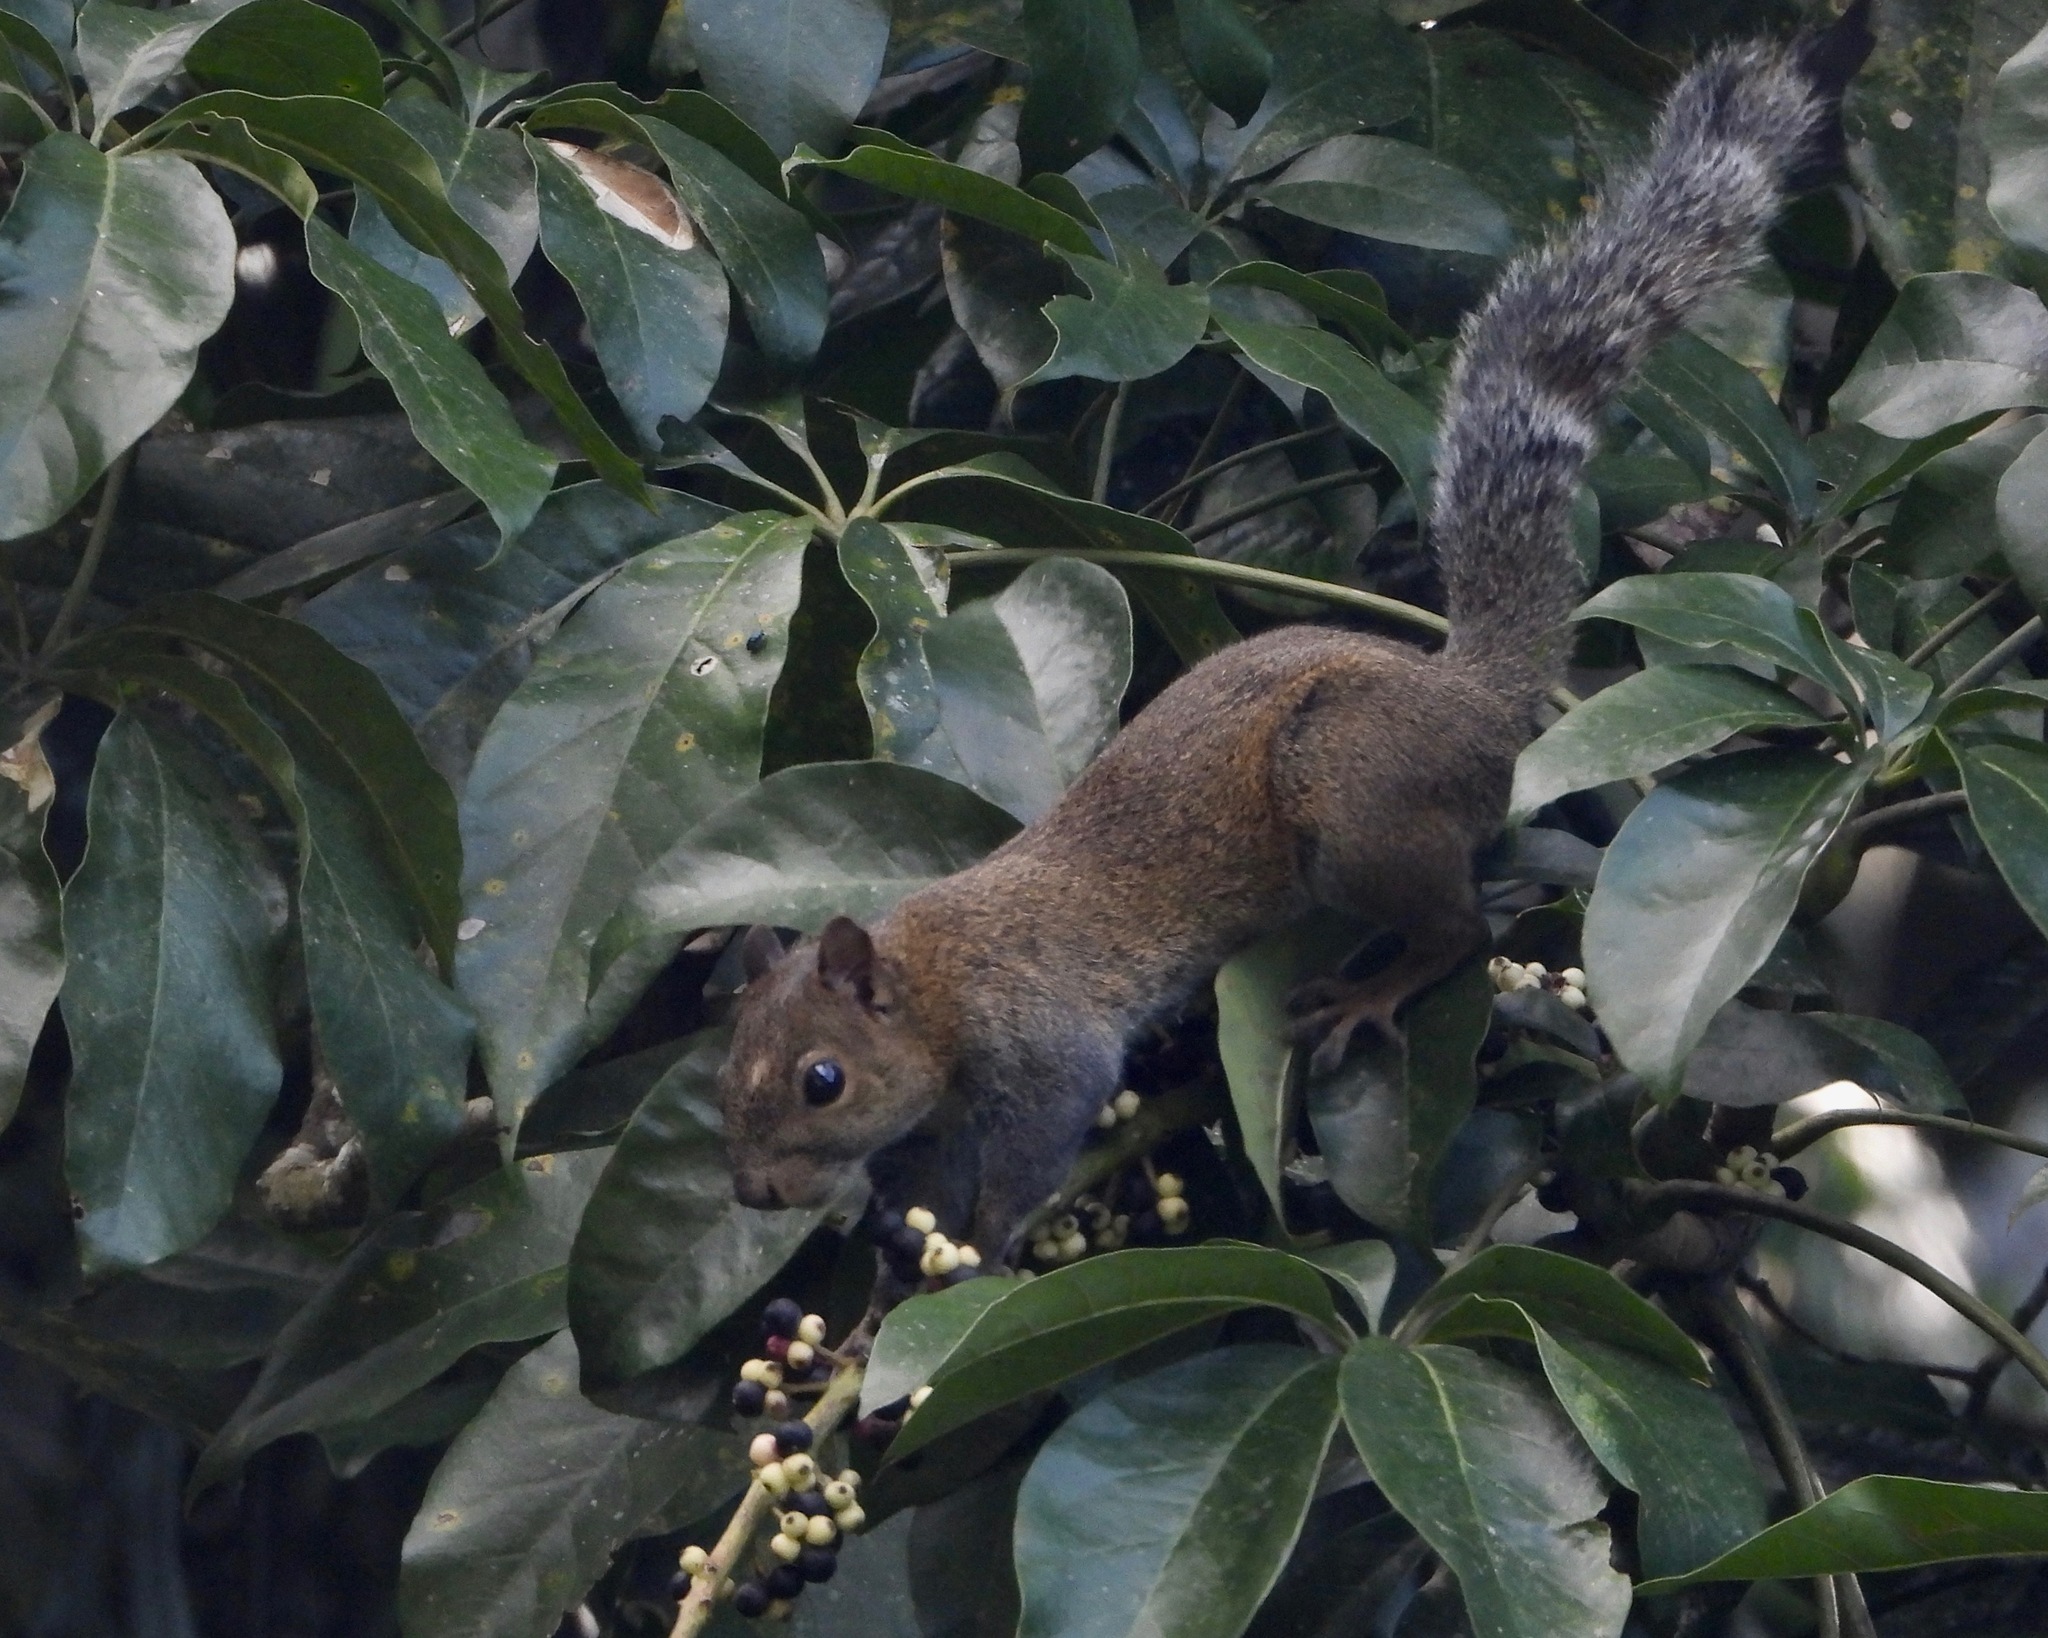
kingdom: Animalia
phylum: Chordata
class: Mammalia
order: Rodentia
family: Sciuridae
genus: Sciurus
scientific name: Sciurus deppei
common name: Deppe's squirrel
